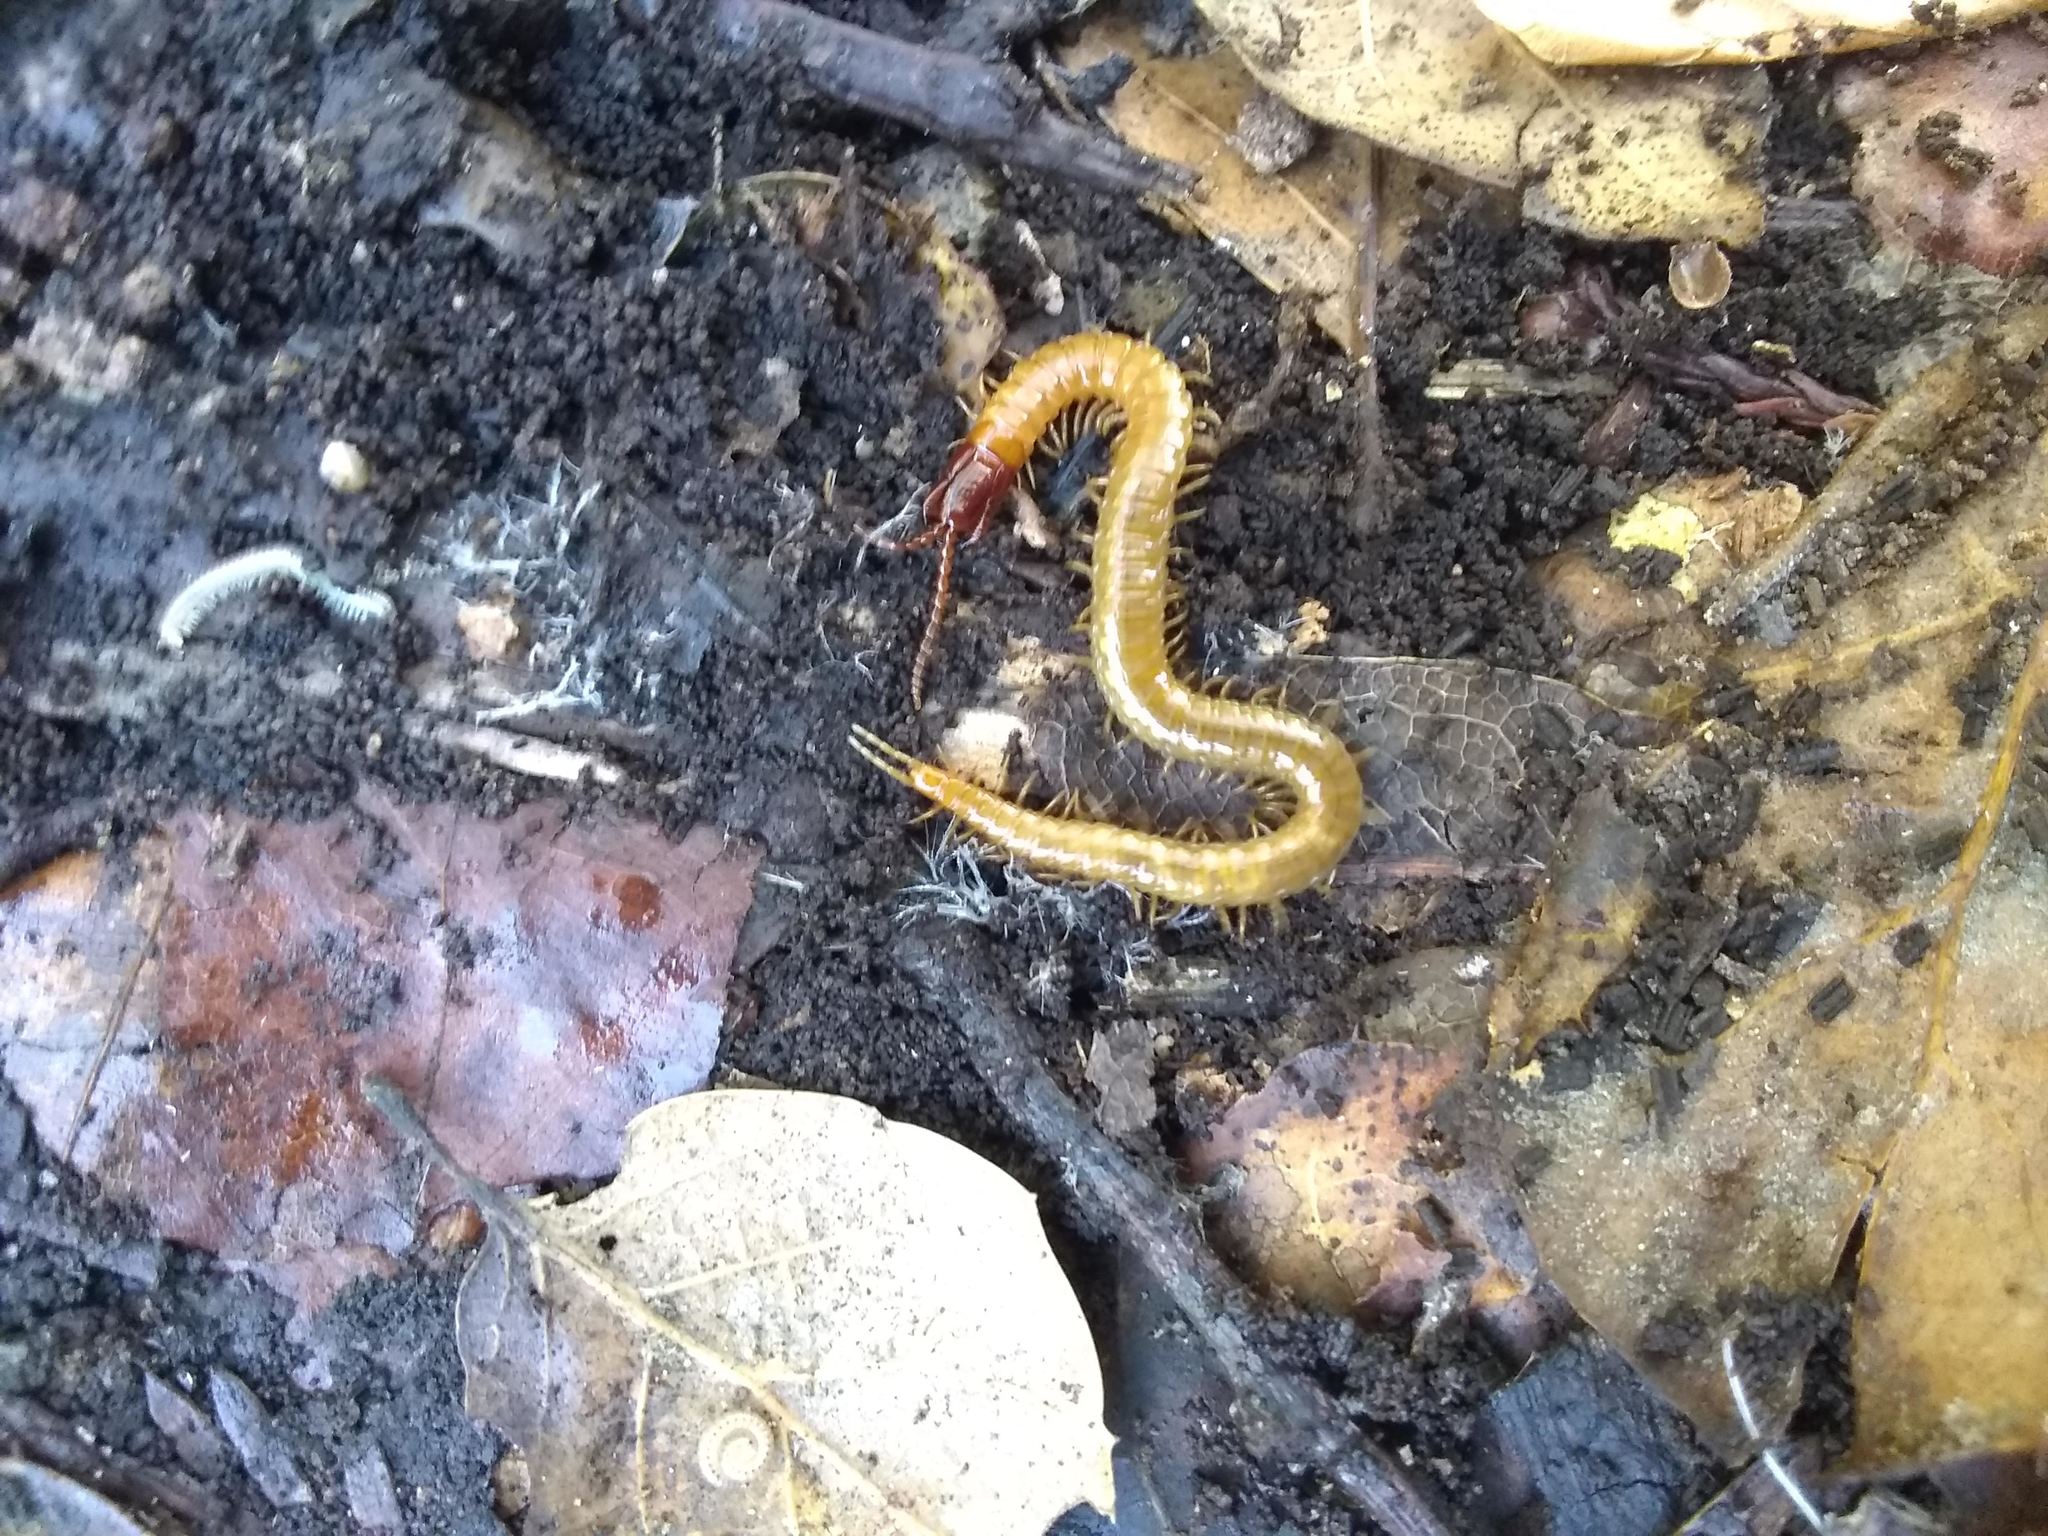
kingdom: Animalia
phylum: Arthropoda
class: Chilopoda
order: Geophilomorpha
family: Mecistocephalidae
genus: Dicellophilus
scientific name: Dicellophilus limatus
